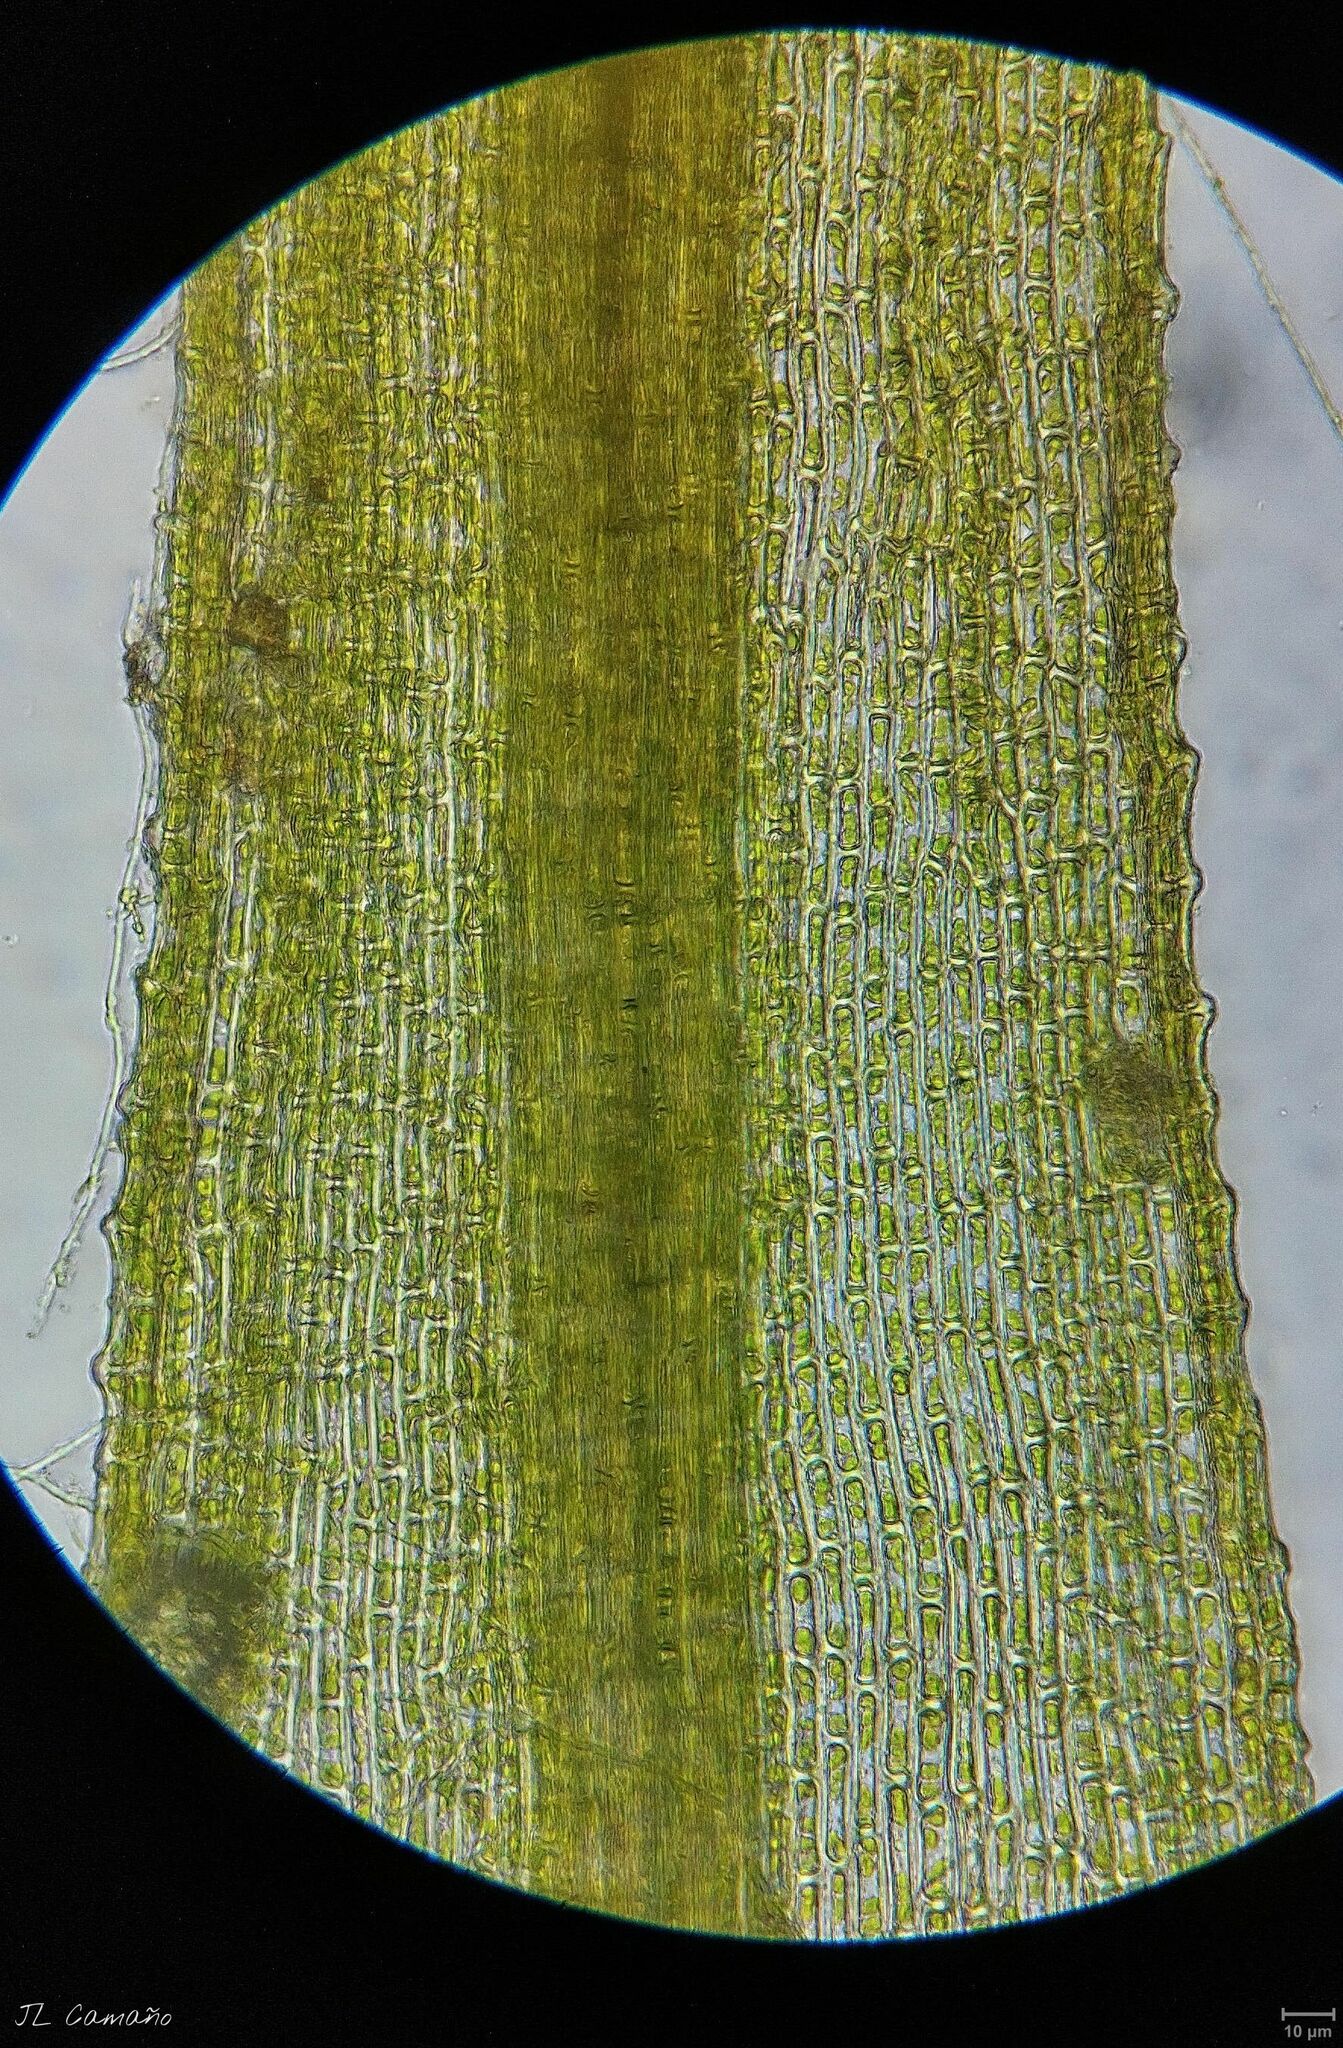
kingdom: Plantae
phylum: Bryophyta
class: Bryopsida
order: Bartramiales
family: Bartramiaceae
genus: Bartramia
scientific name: Bartramia aprica
